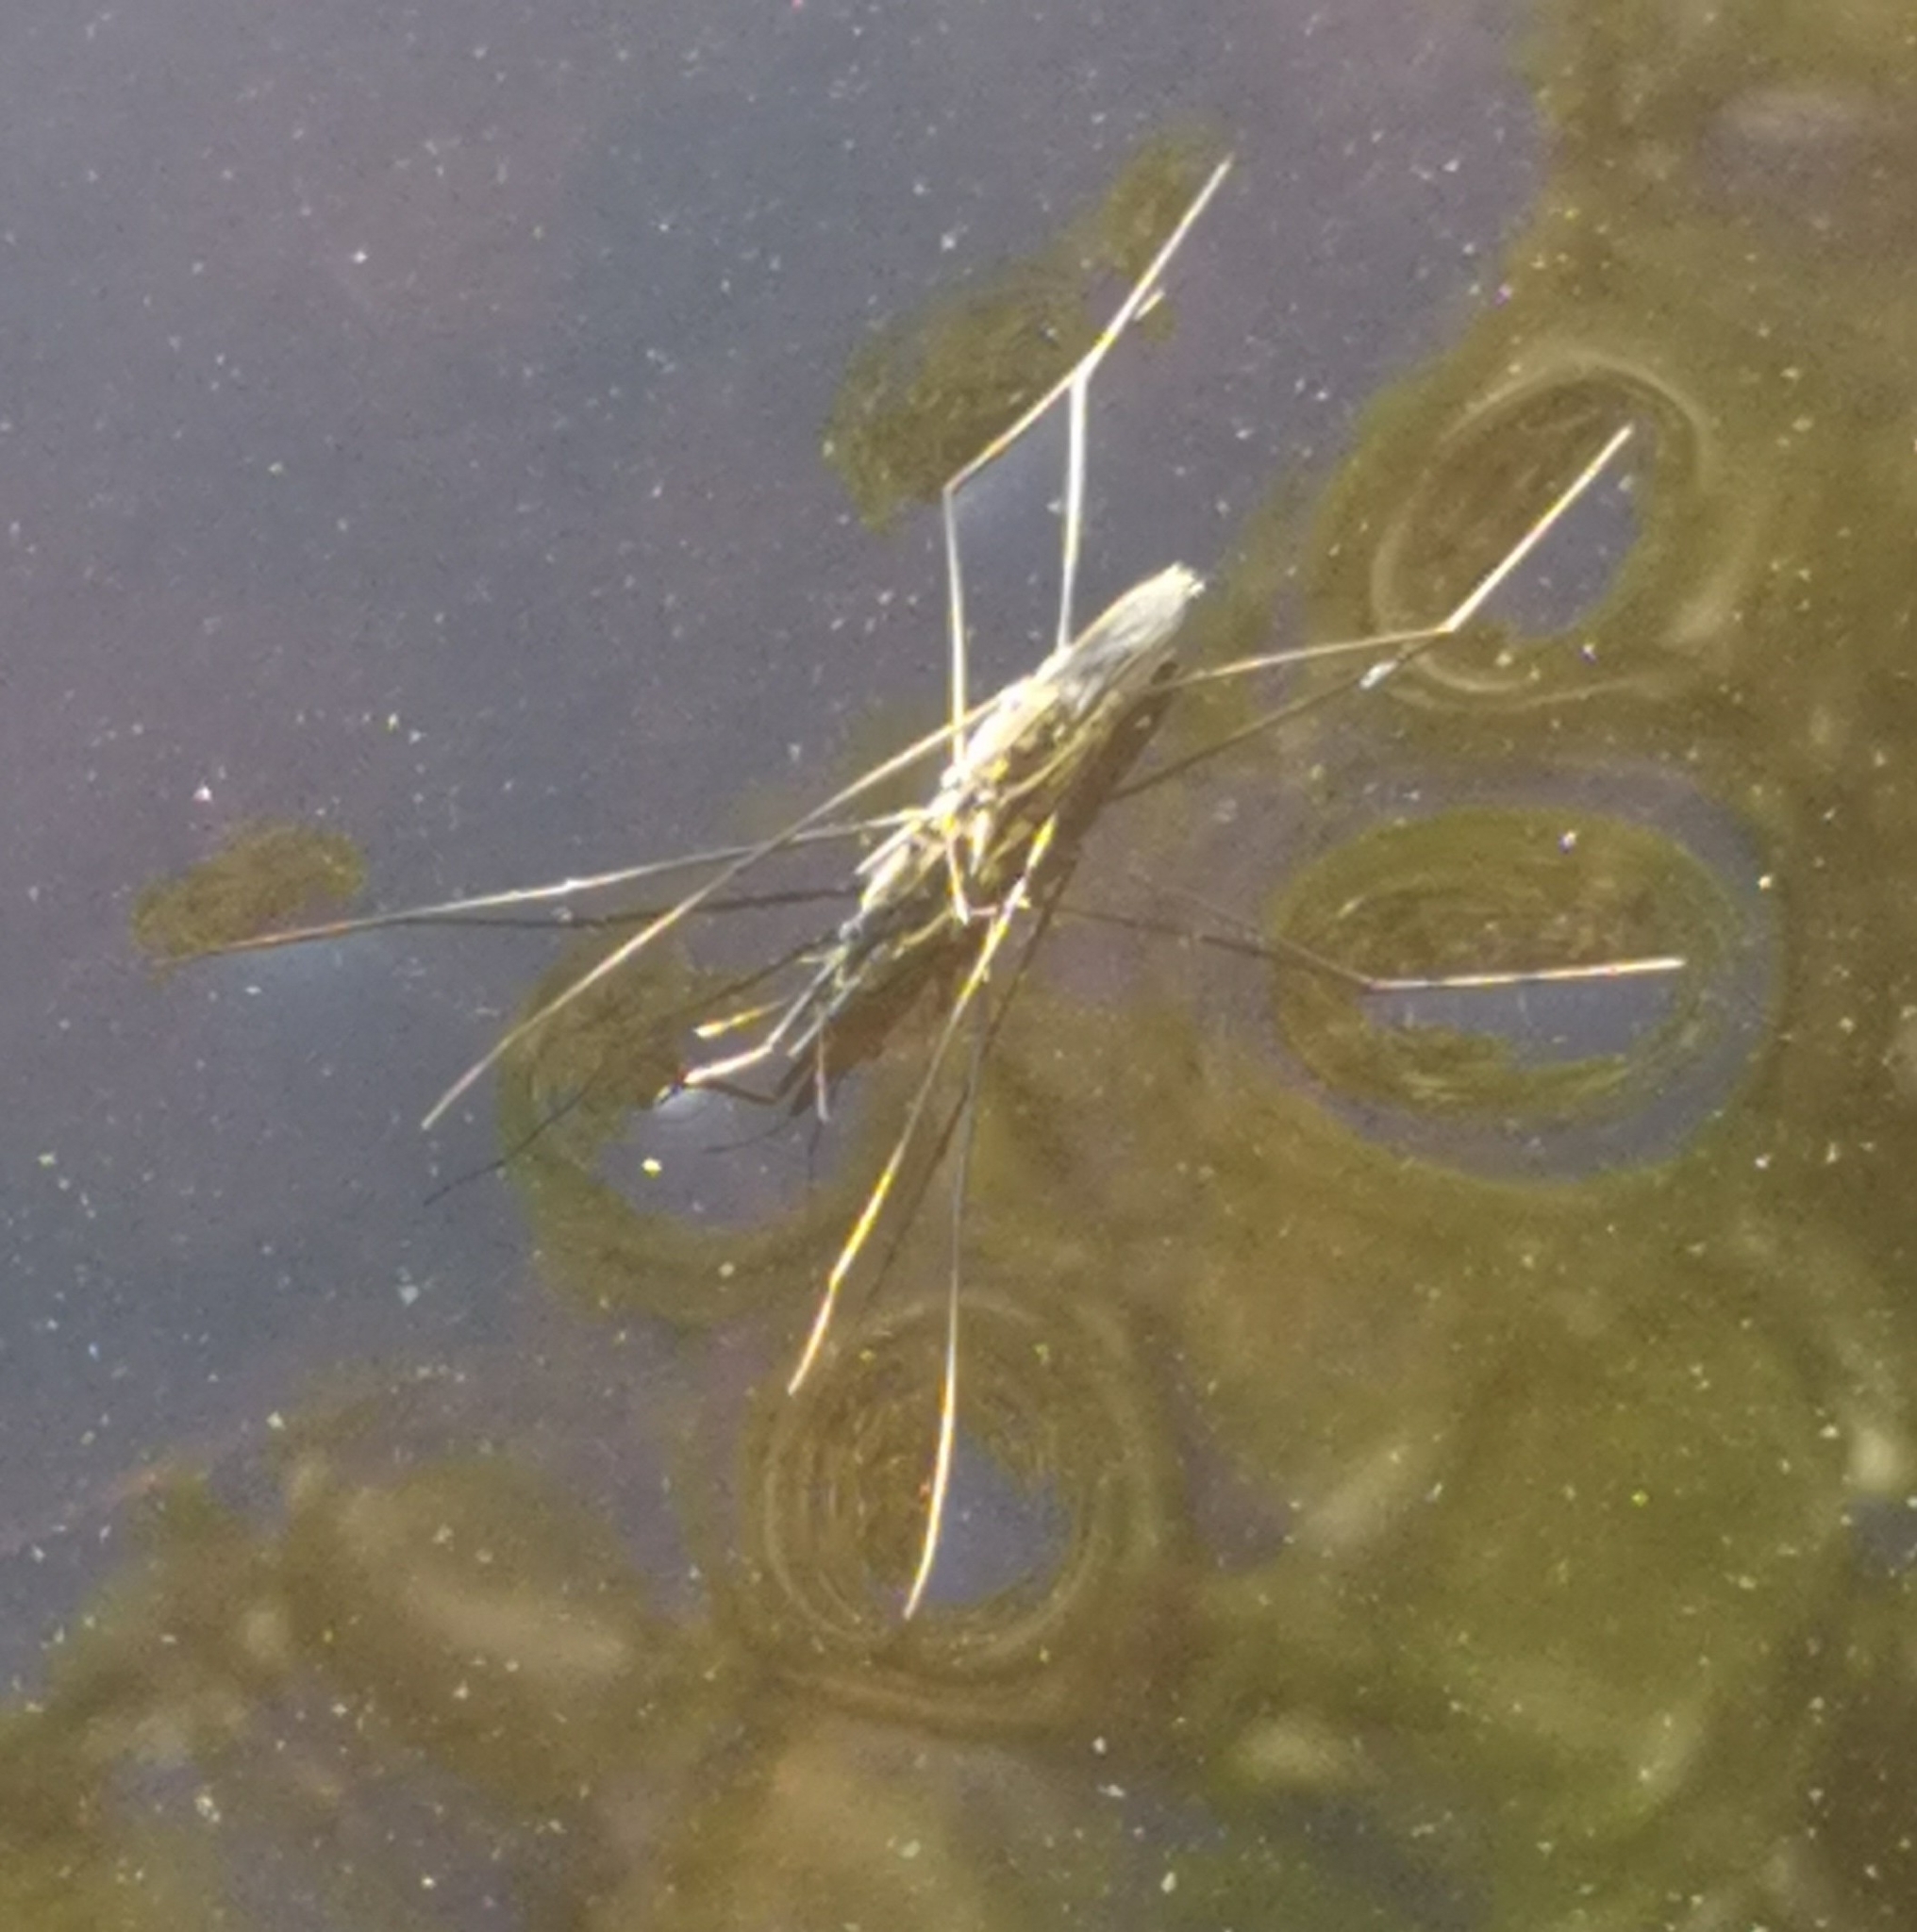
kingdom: Animalia
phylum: Arthropoda
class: Insecta
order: Hemiptera
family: Gerridae
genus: Aquarius
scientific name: Aquarius paludum
